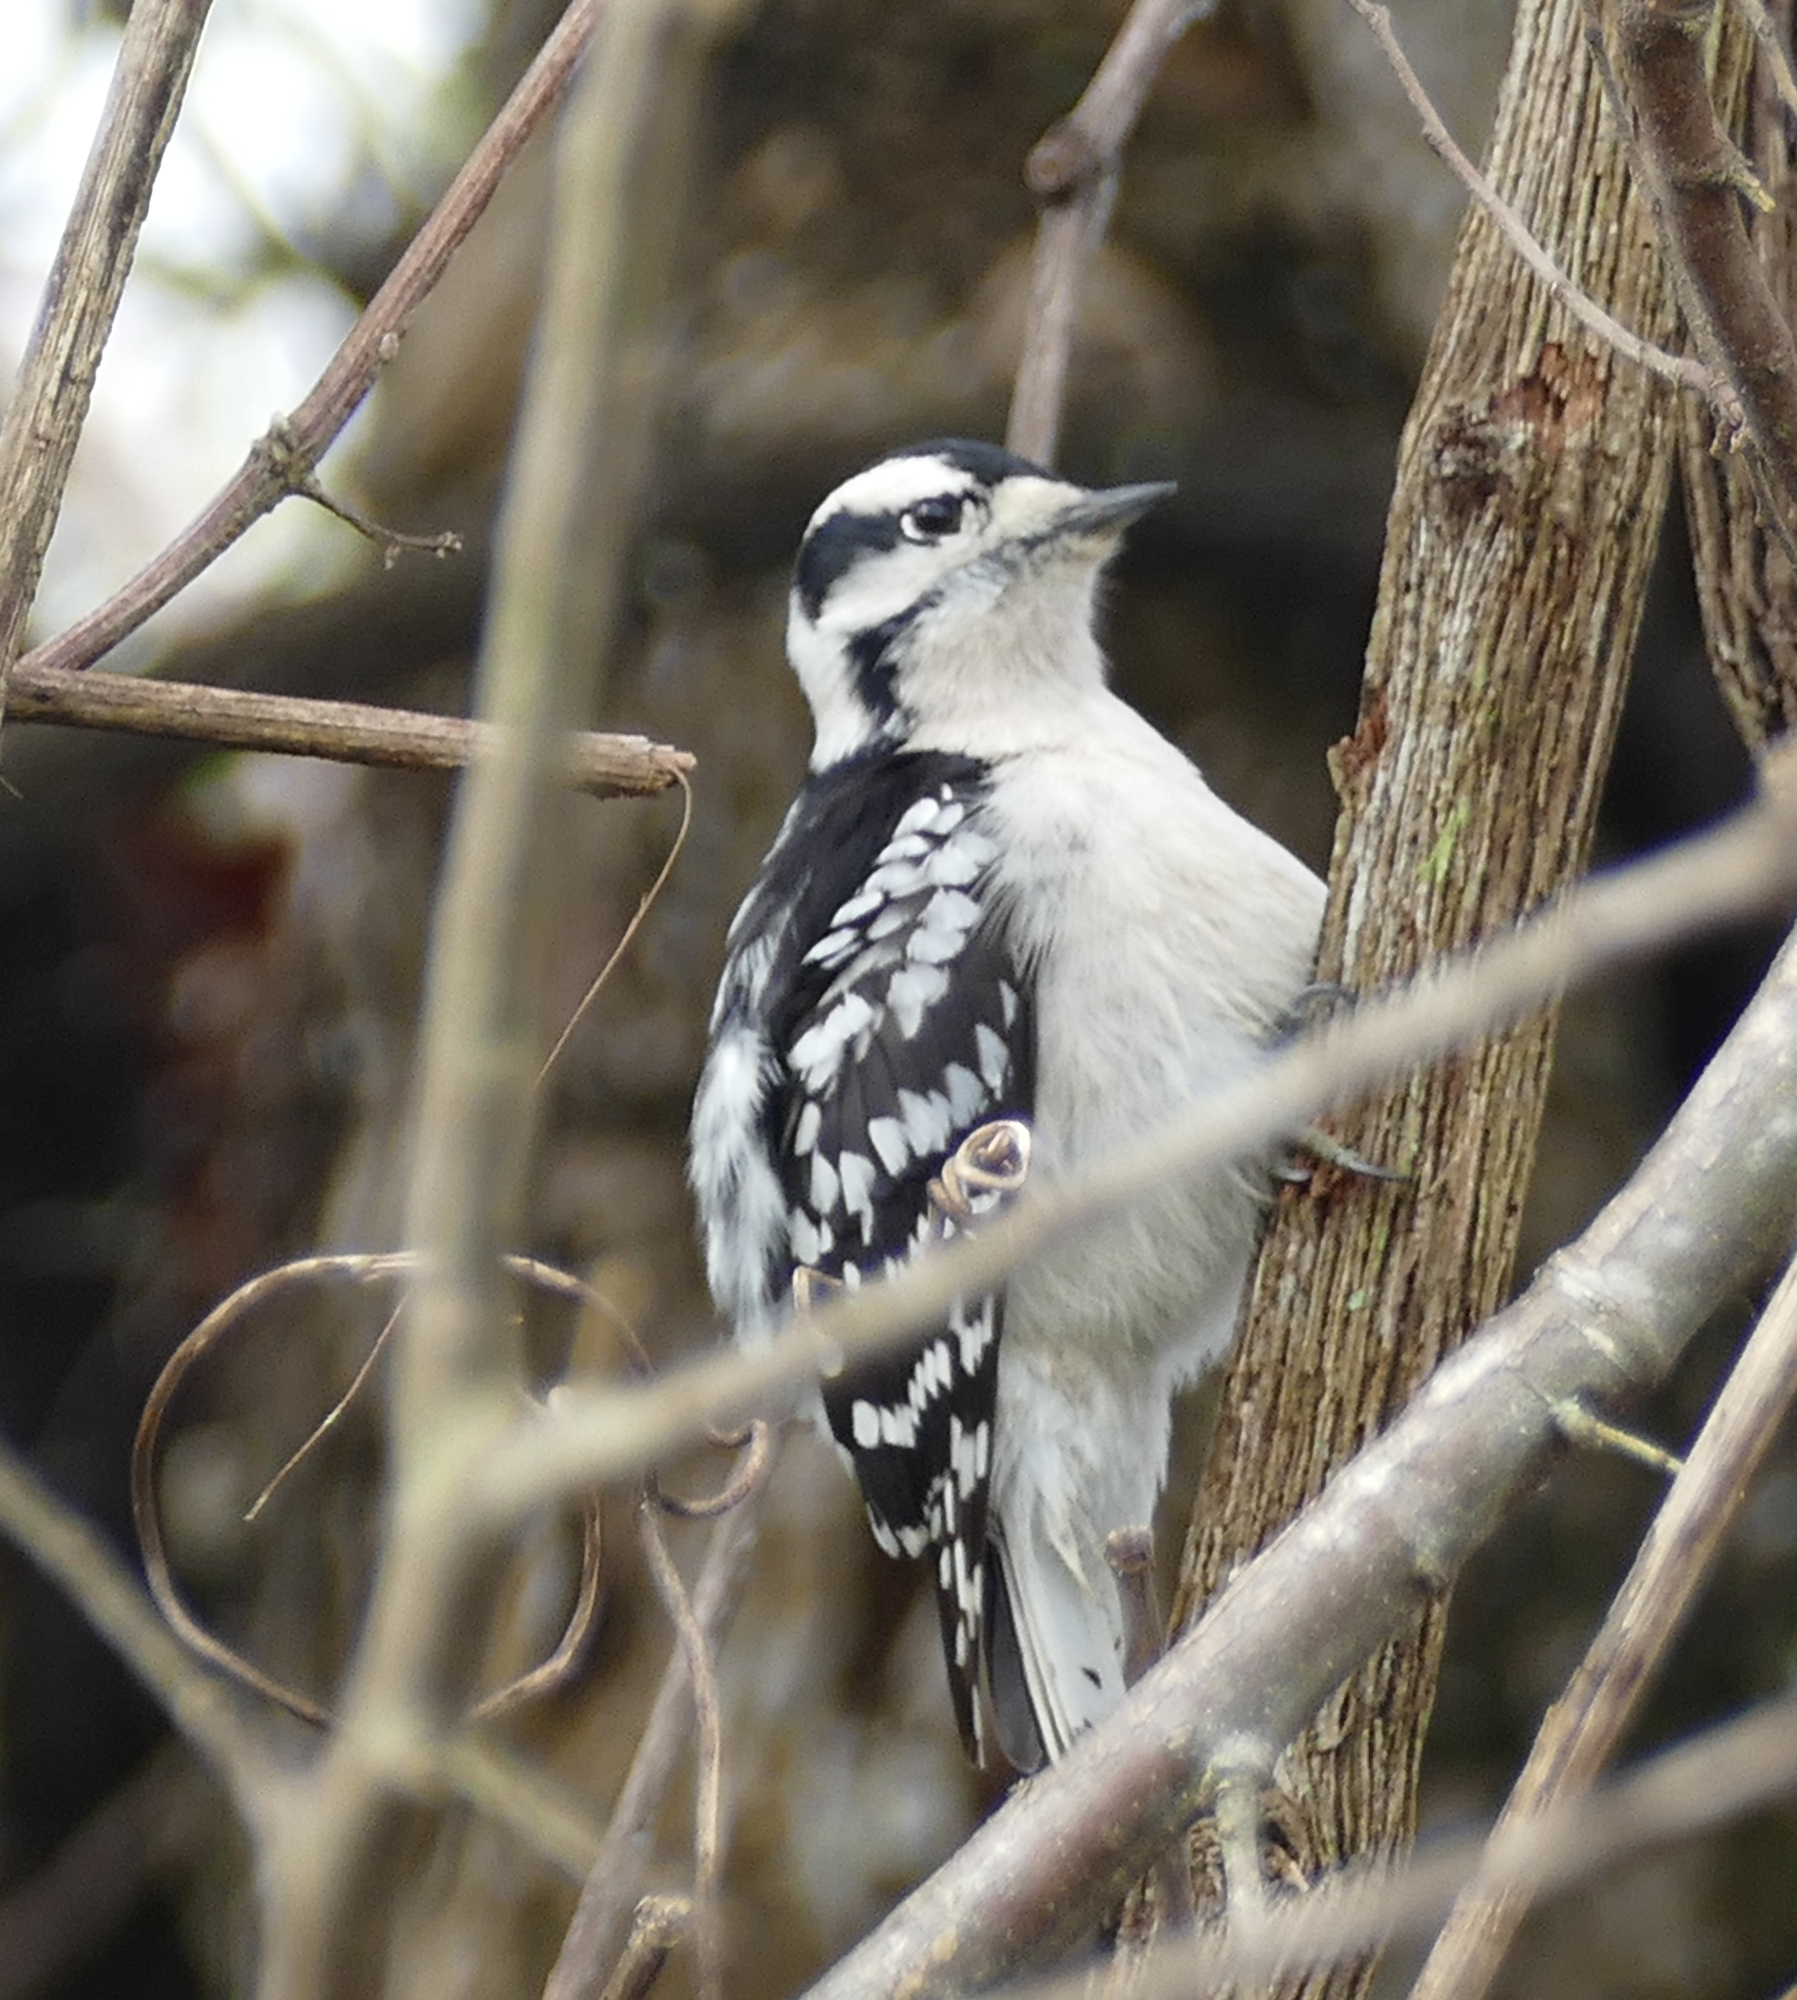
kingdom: Animalia
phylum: Chordata
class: Aves
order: Piciformes
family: Picidae
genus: Dryobates
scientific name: Dryobates pubescens
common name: Downy woodpecker
